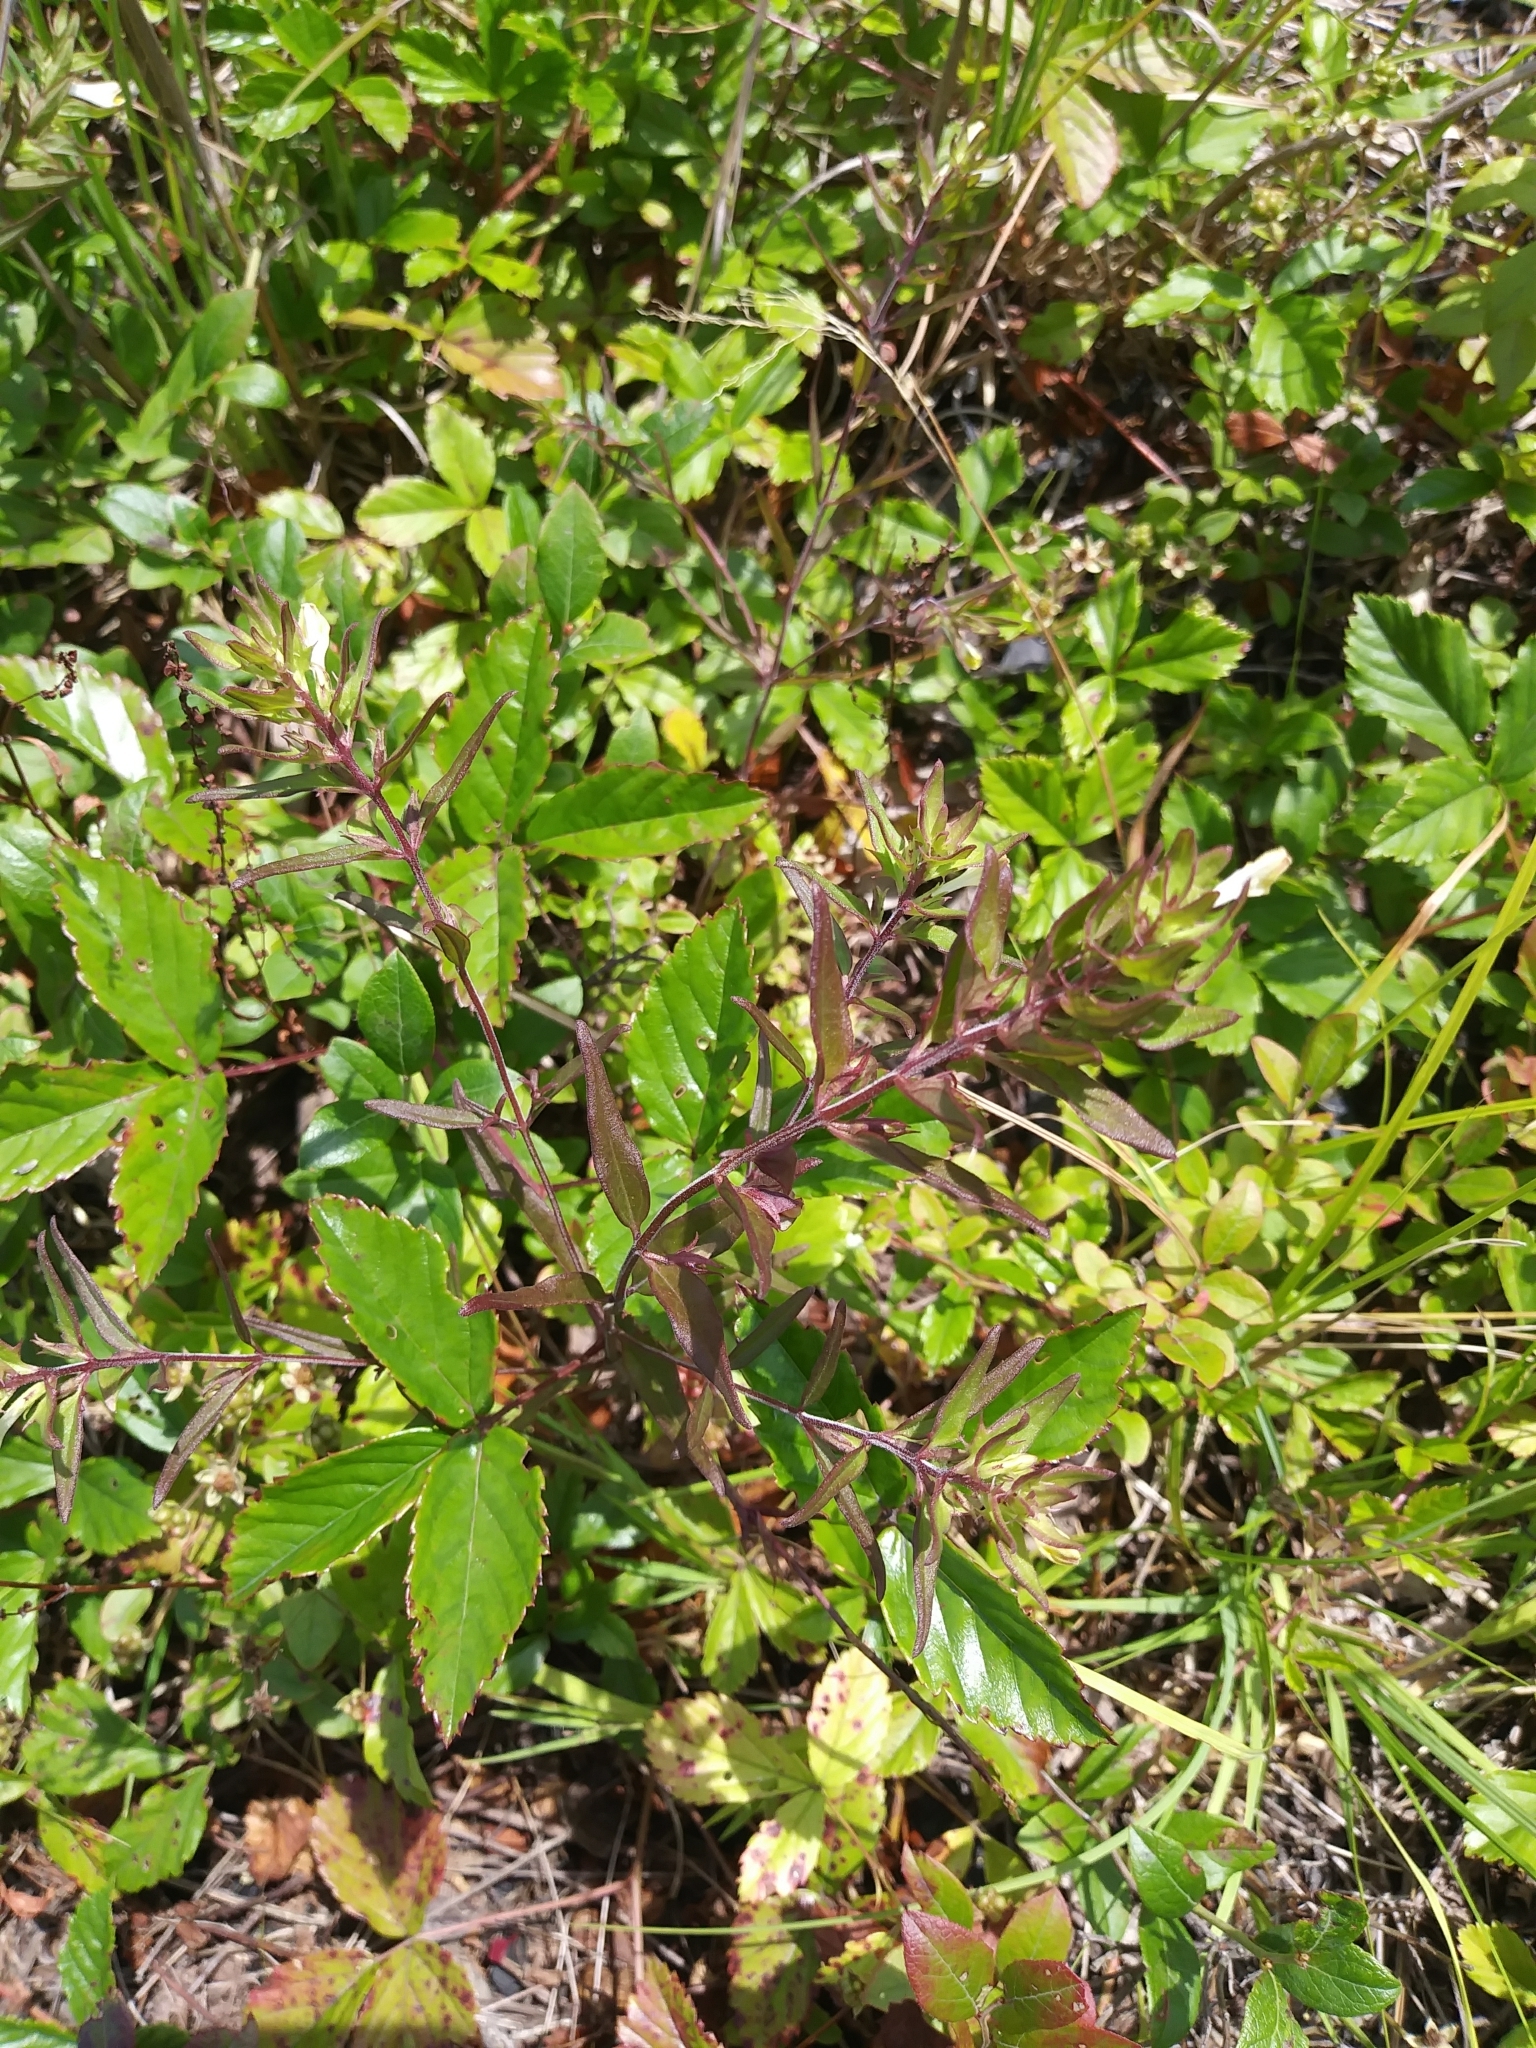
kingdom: Plantae
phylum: Tracheophyta
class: Magnoliopsida
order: Lamiales
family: Orobanchaceae
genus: Melampyrum
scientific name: Melampyrum lineare
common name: American cow-wheat
